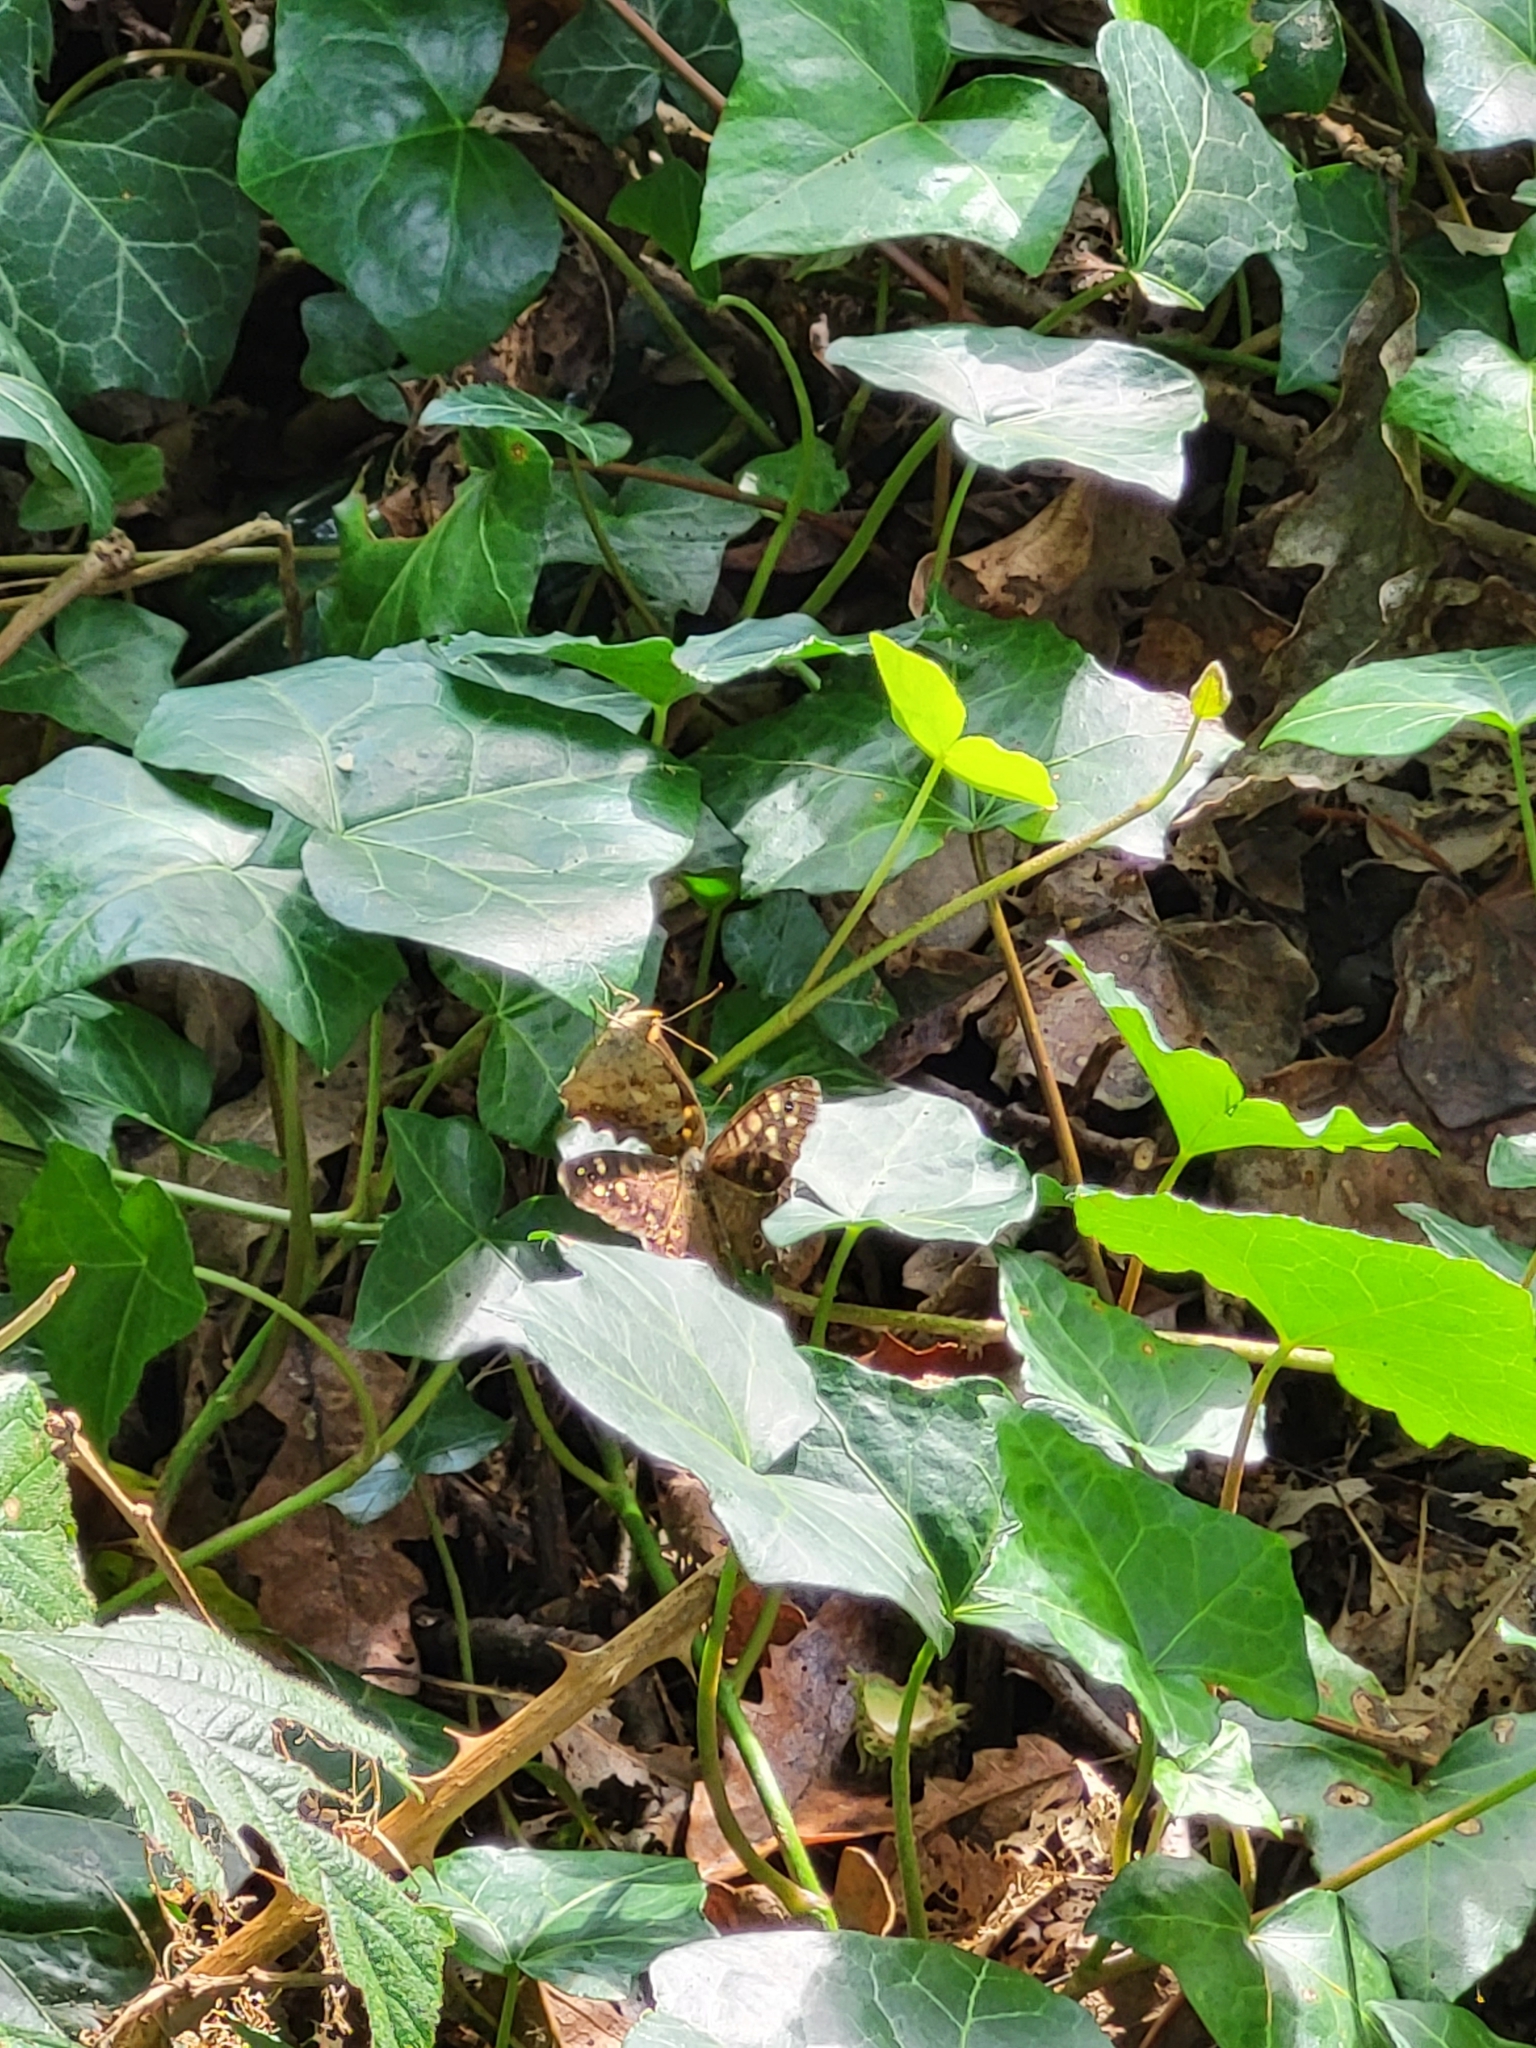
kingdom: Animalia
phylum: Arthropoda
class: Insecta
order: Lepidoptera
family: Nymphalidae
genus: Pararge
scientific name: Pararge aegeria
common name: Speckled wood
